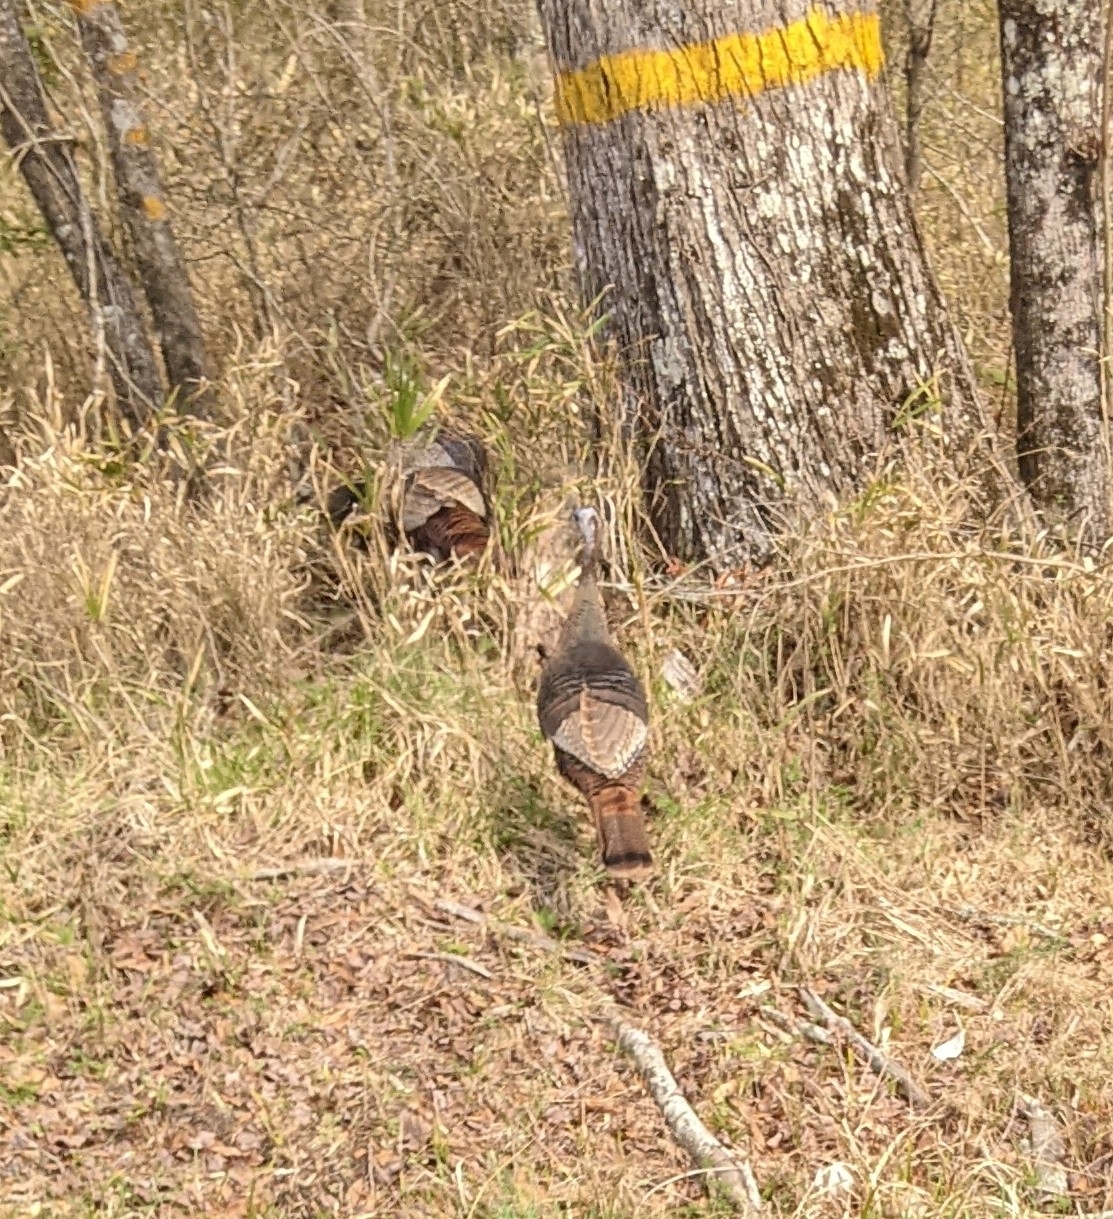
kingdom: Animalia
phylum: Chordata
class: Aves
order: Galliformes
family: Phasianidae
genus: Meleagris
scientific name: Meleagris gallopavo
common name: Wild turkey
